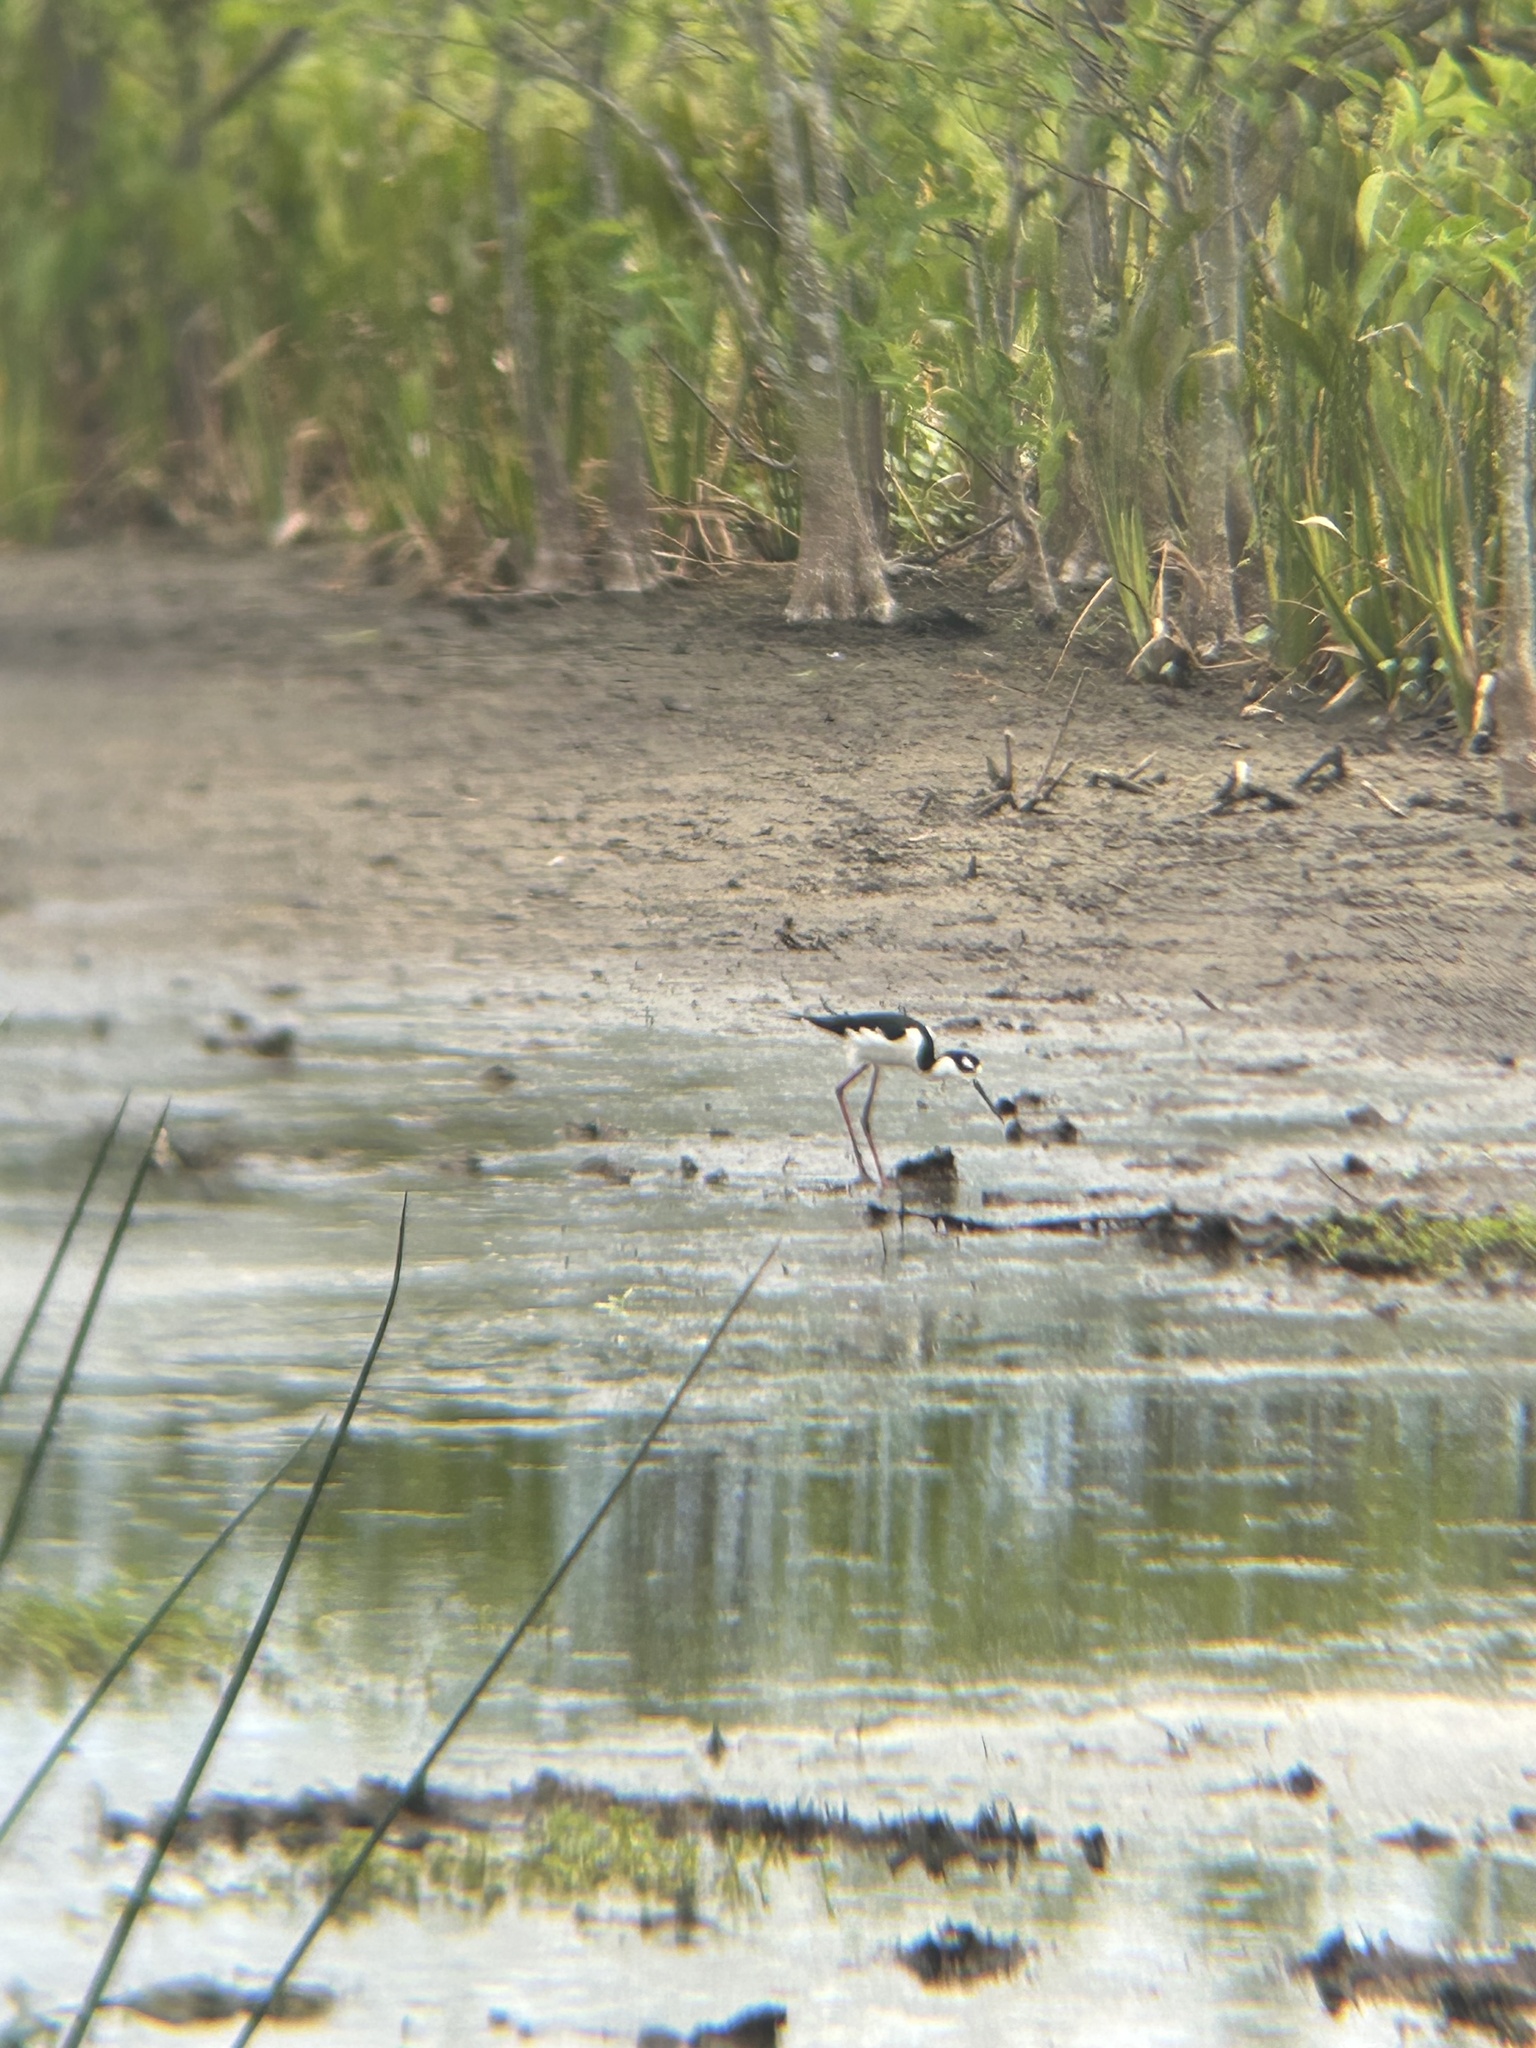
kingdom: Animalia
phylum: Chordata
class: Aves
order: Charadriiformes
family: Recurvirostridae
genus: Himantopus
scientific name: Himantopus mexicanus
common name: Black-necked stilt
